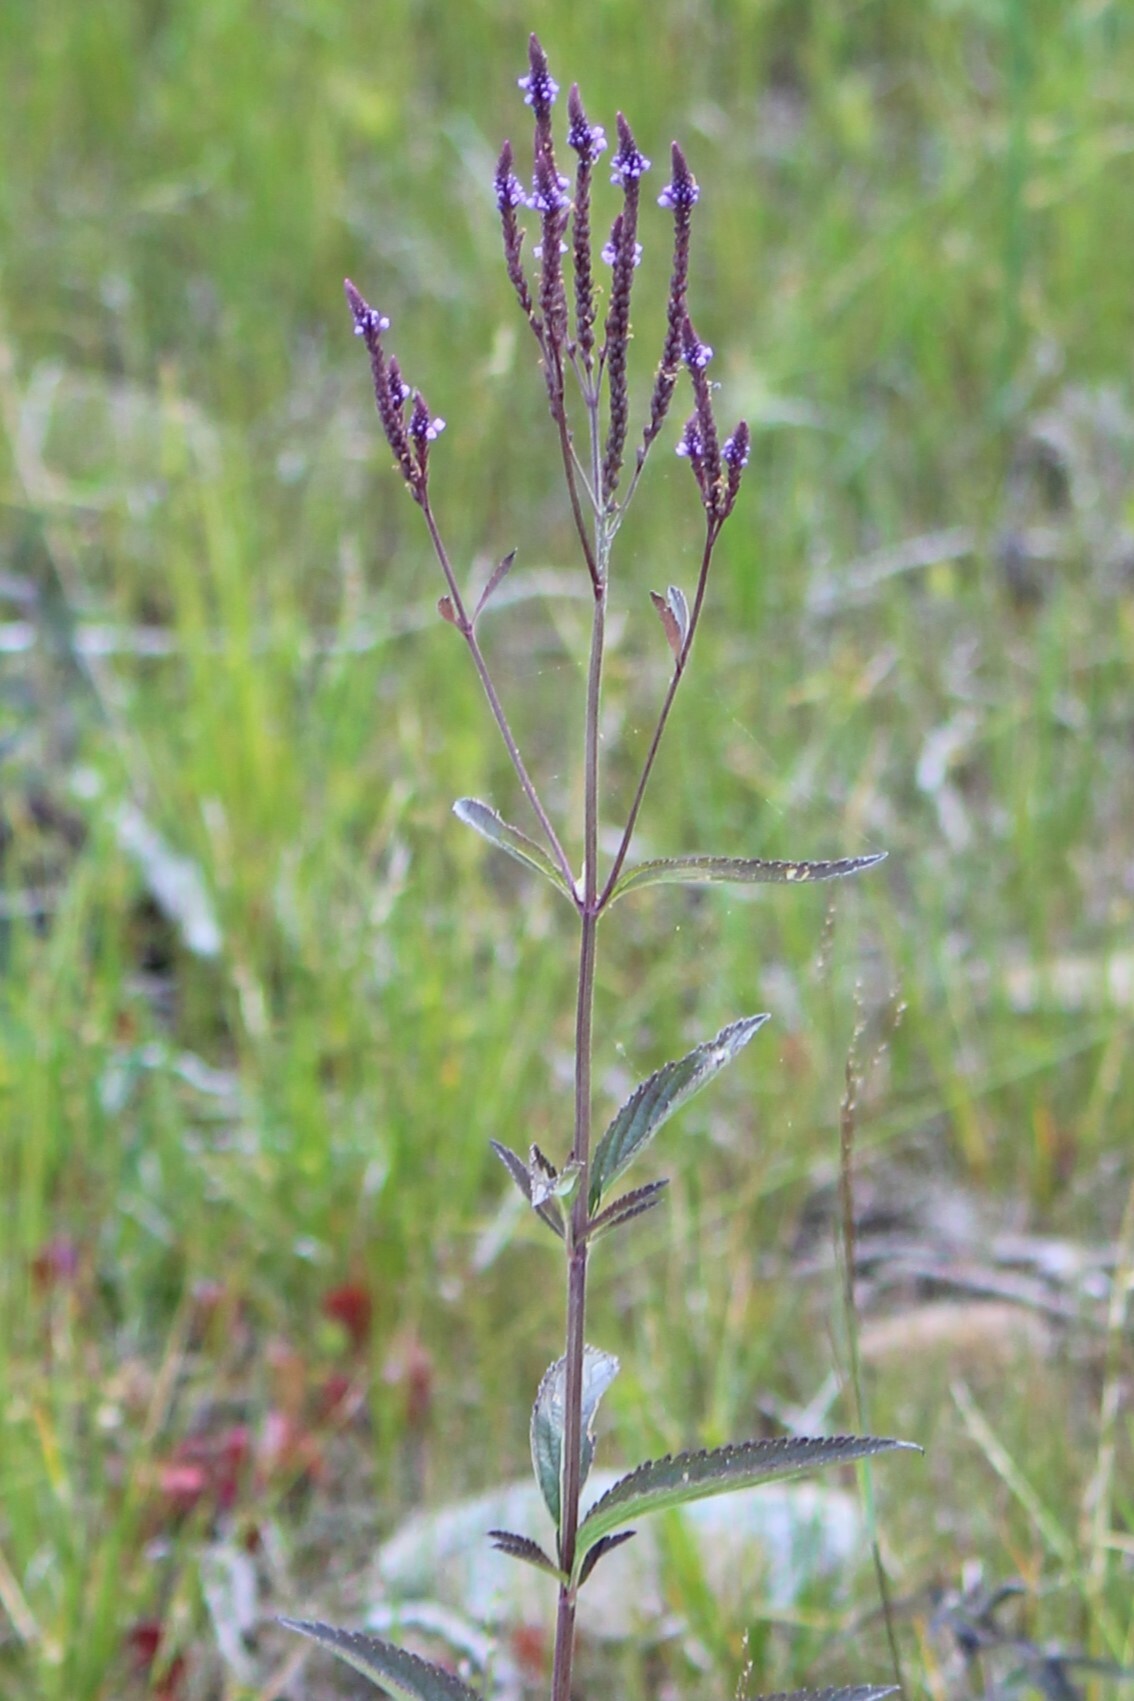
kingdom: Plantae
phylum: Tracheophyta
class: Magnoliopsida
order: Lamiales
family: Verbenaceae
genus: Verbena
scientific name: Verbena hastata
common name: American blue vervain
